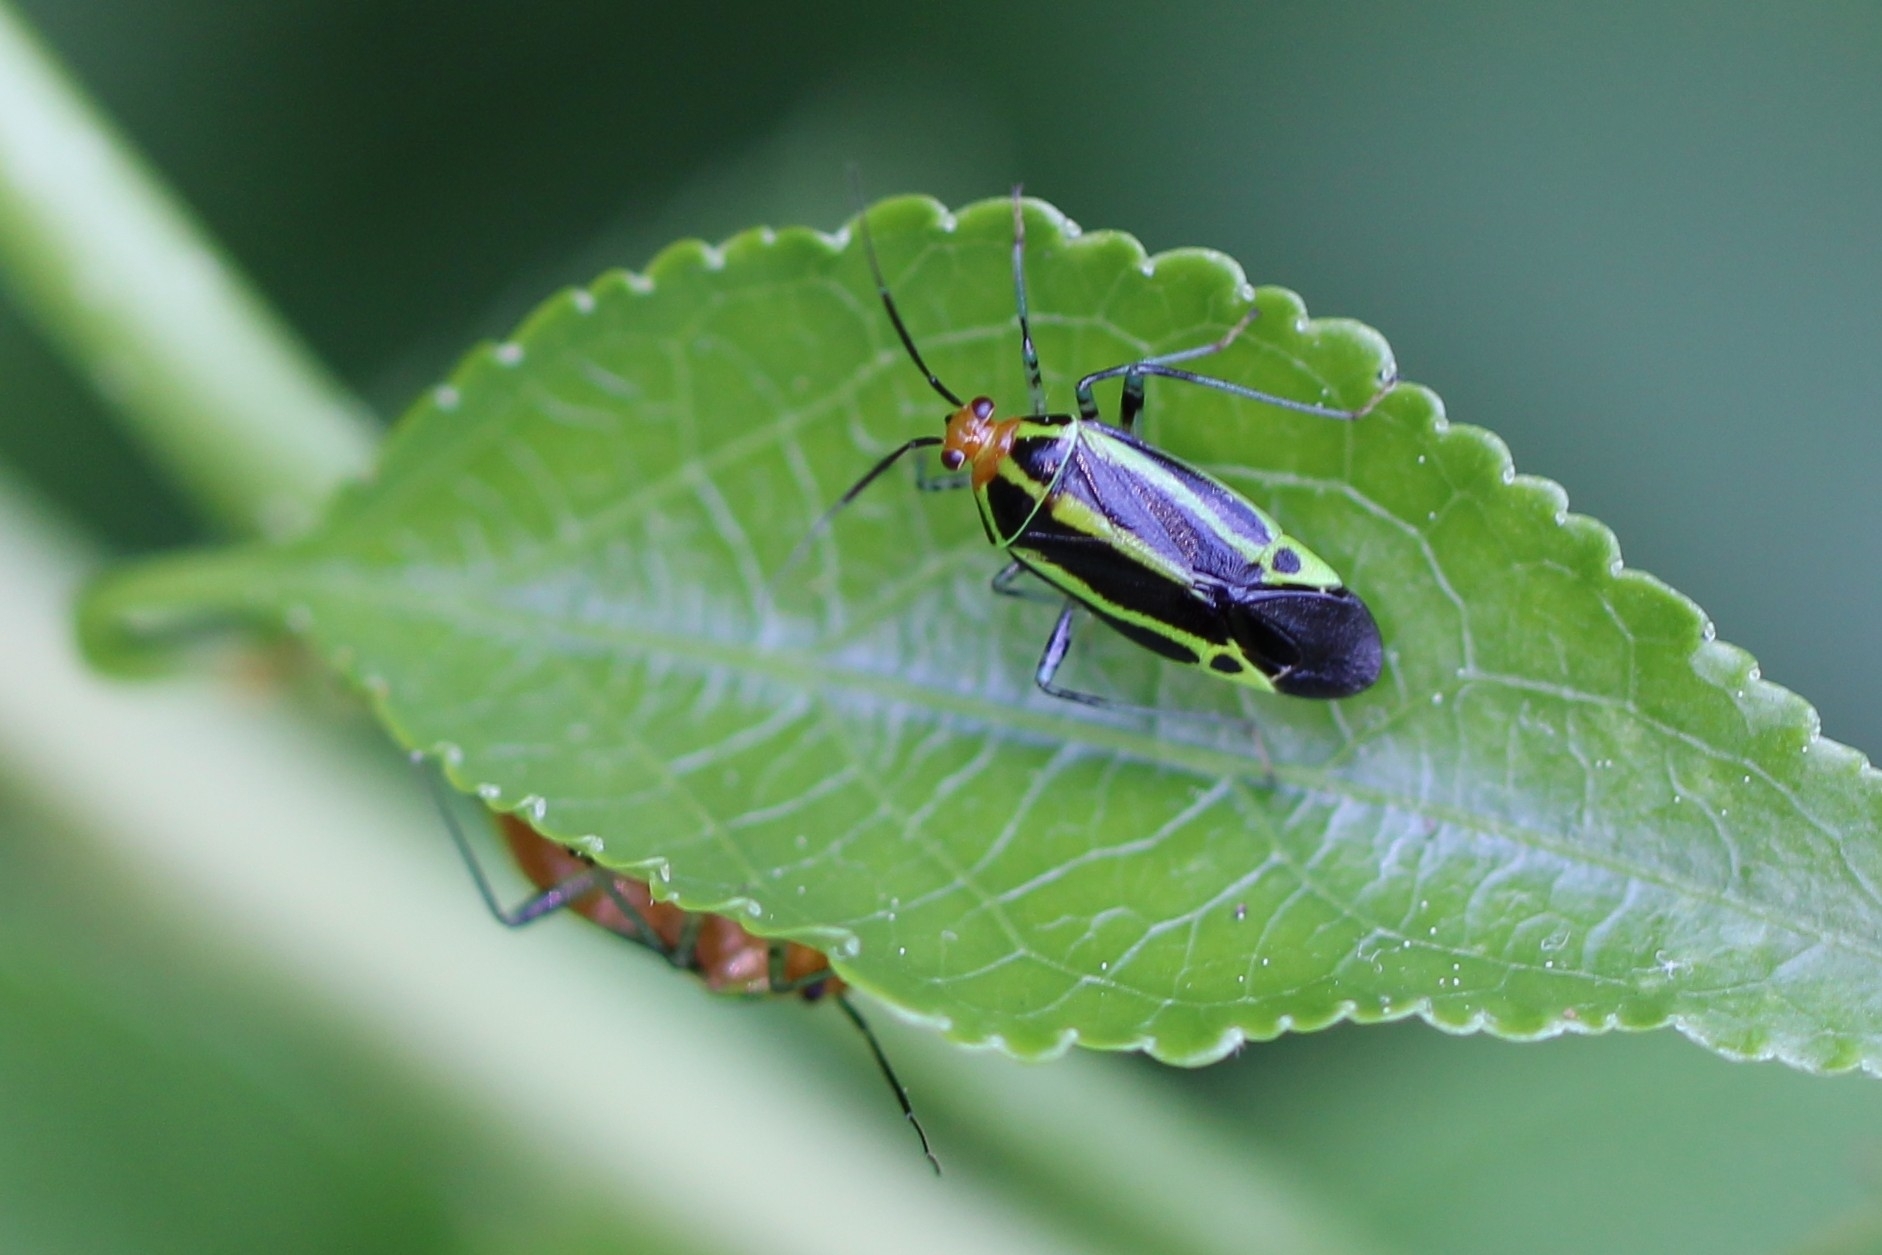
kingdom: Animalia
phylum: Arthropoda
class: Insecta
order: Hemiptera
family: Miridae
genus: Poecilocapsus
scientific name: Poecilocapsus lineatus
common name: Four-lined plant bug
